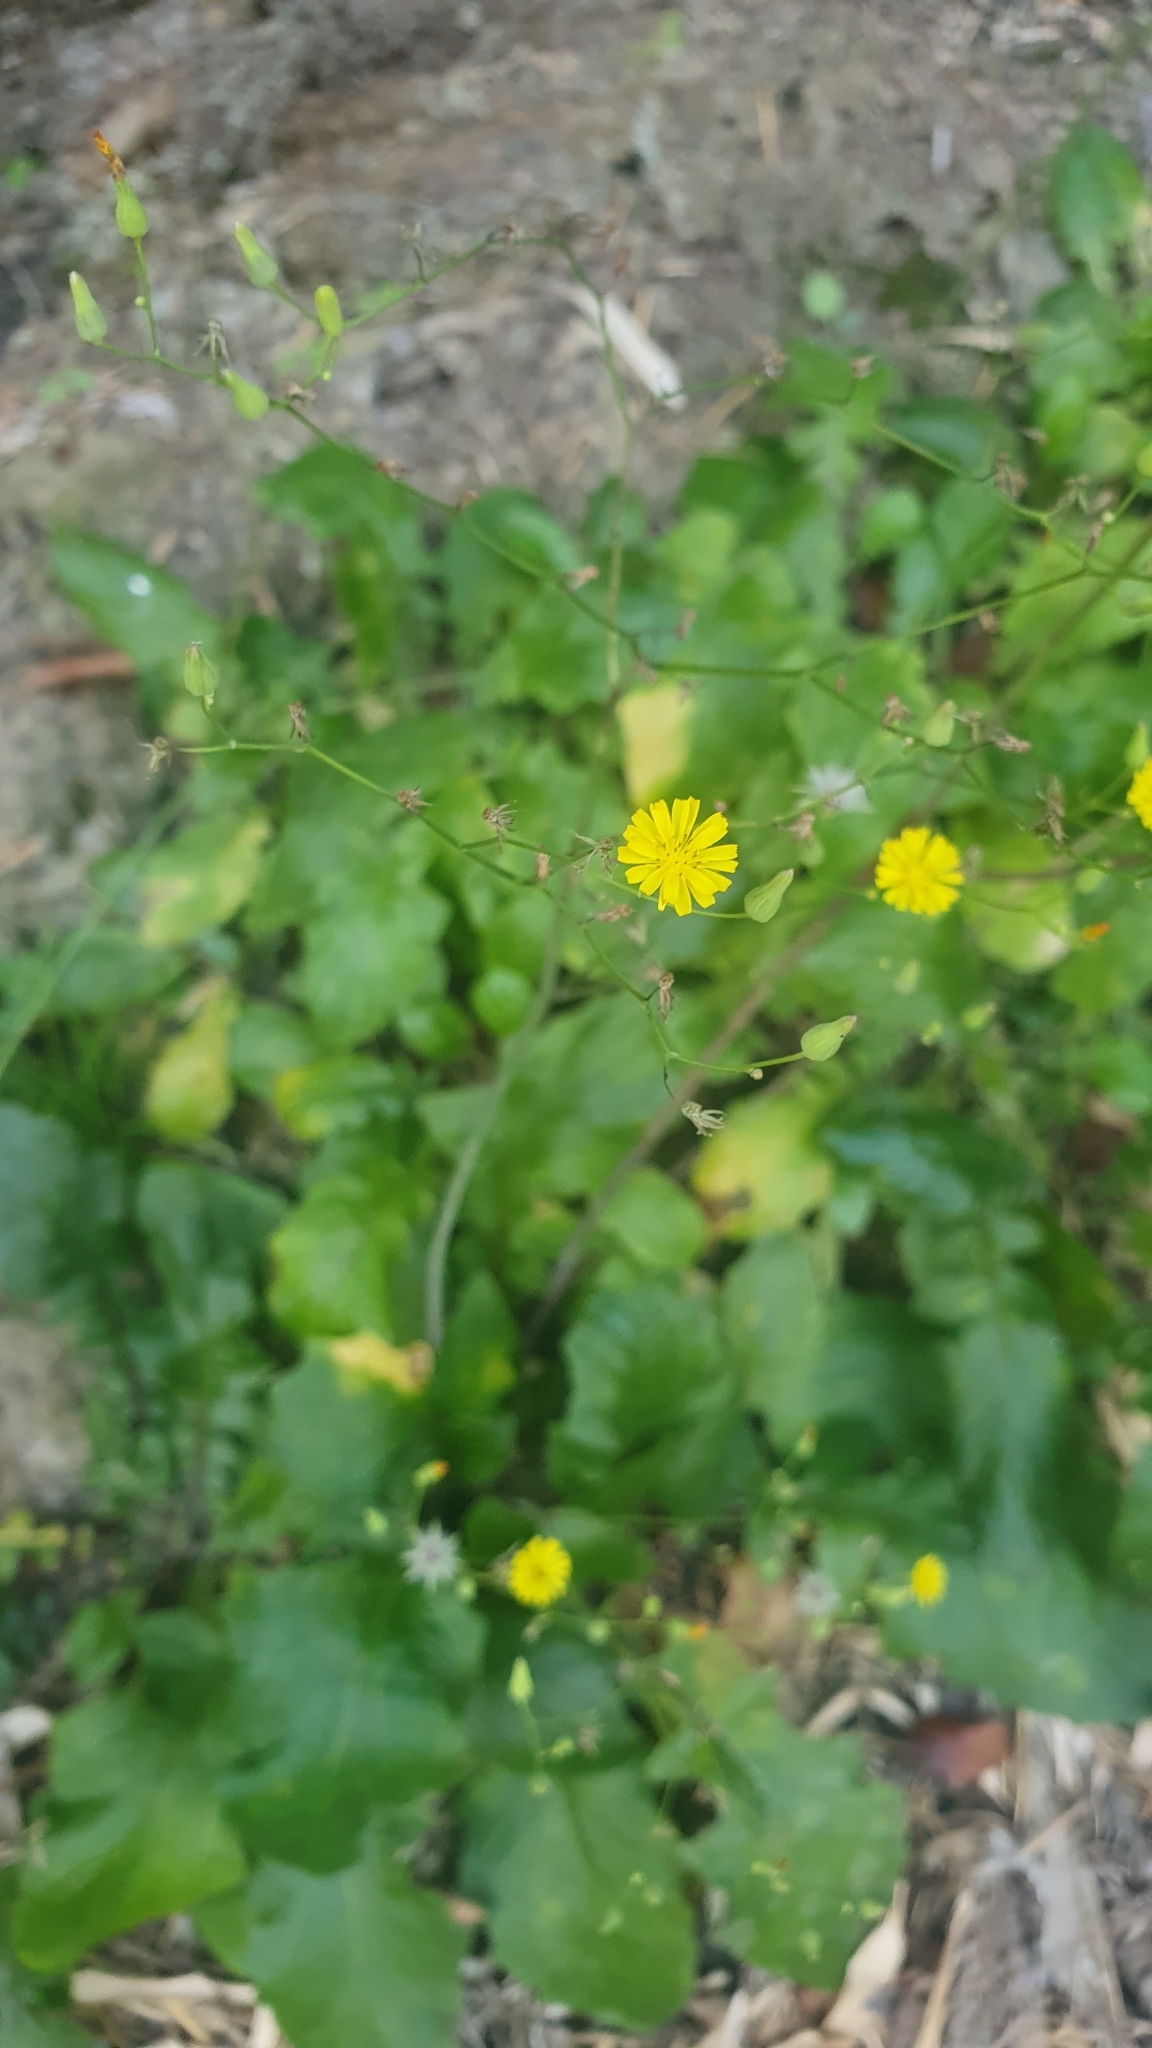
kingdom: Plantae
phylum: Tracheophyta
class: Magnoliopsida
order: Asterales
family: Asteraceae
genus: Youngia
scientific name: Youngia japonica
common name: Oriental false hawksbeard
